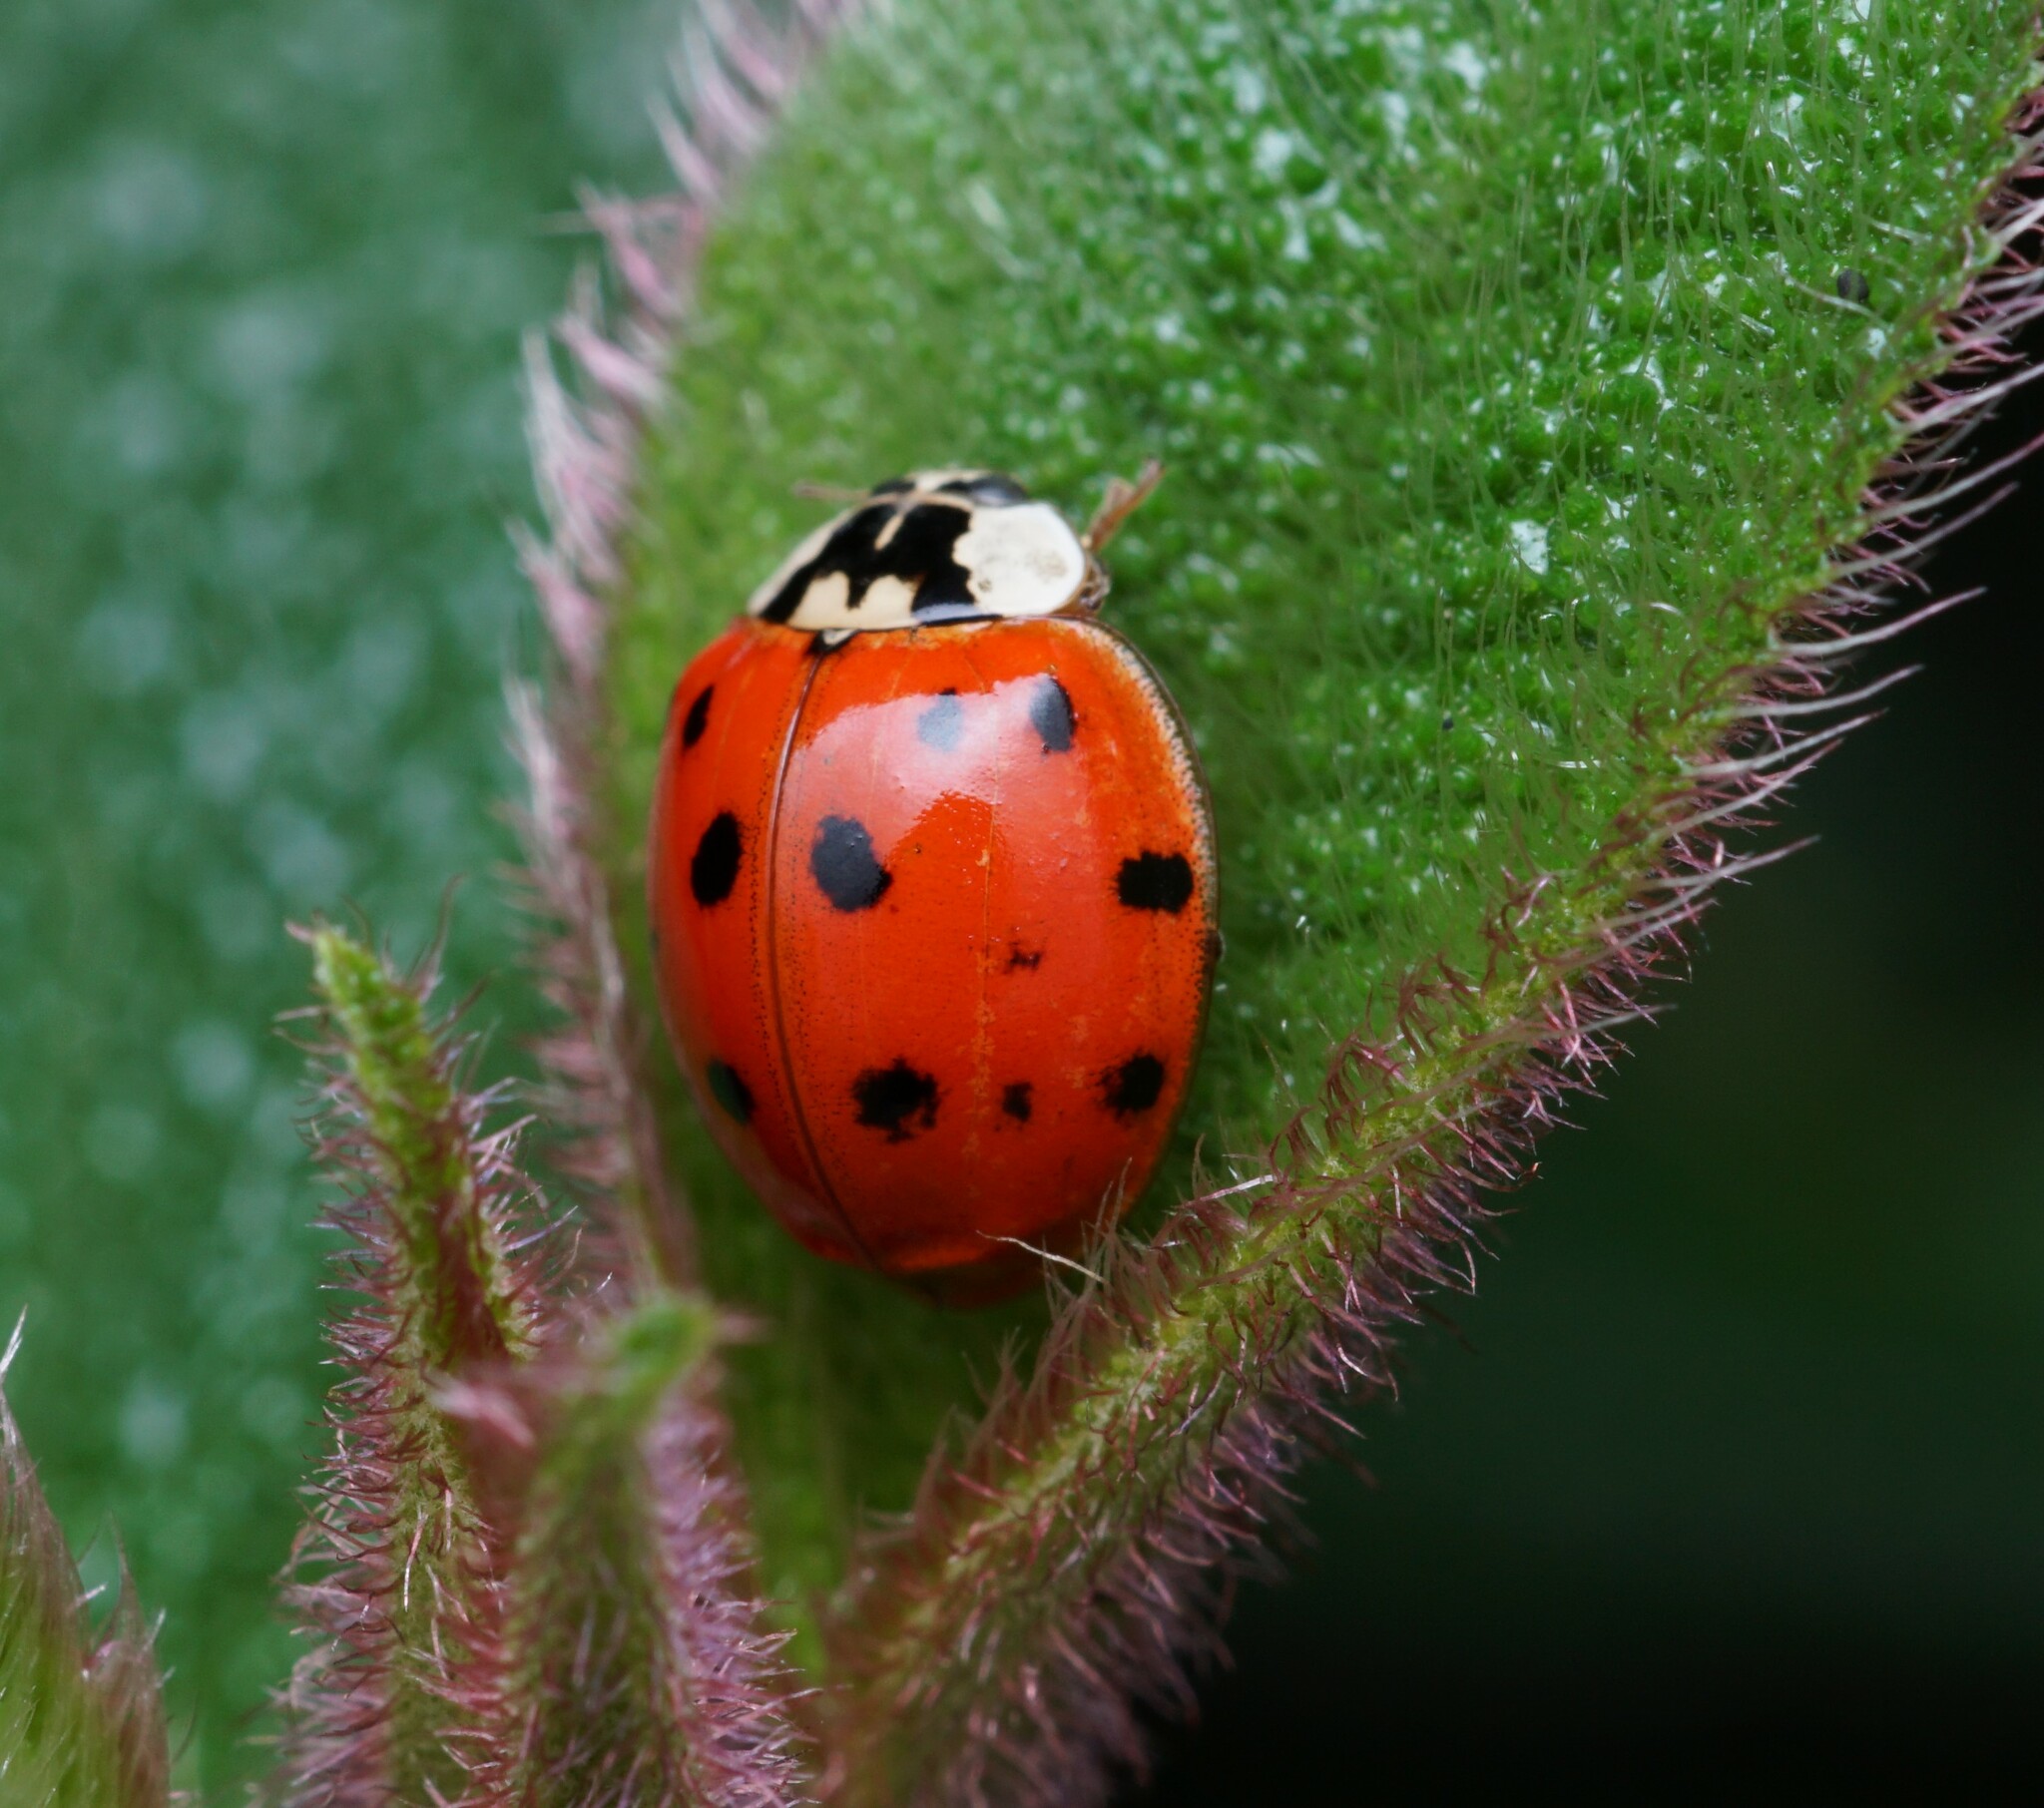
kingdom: Animalia
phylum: Arthropoda
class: Insecta
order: Coleoptera
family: Coccinellidae
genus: Harmonia
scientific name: Harmonia axyridis
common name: Harlequin ladybird
